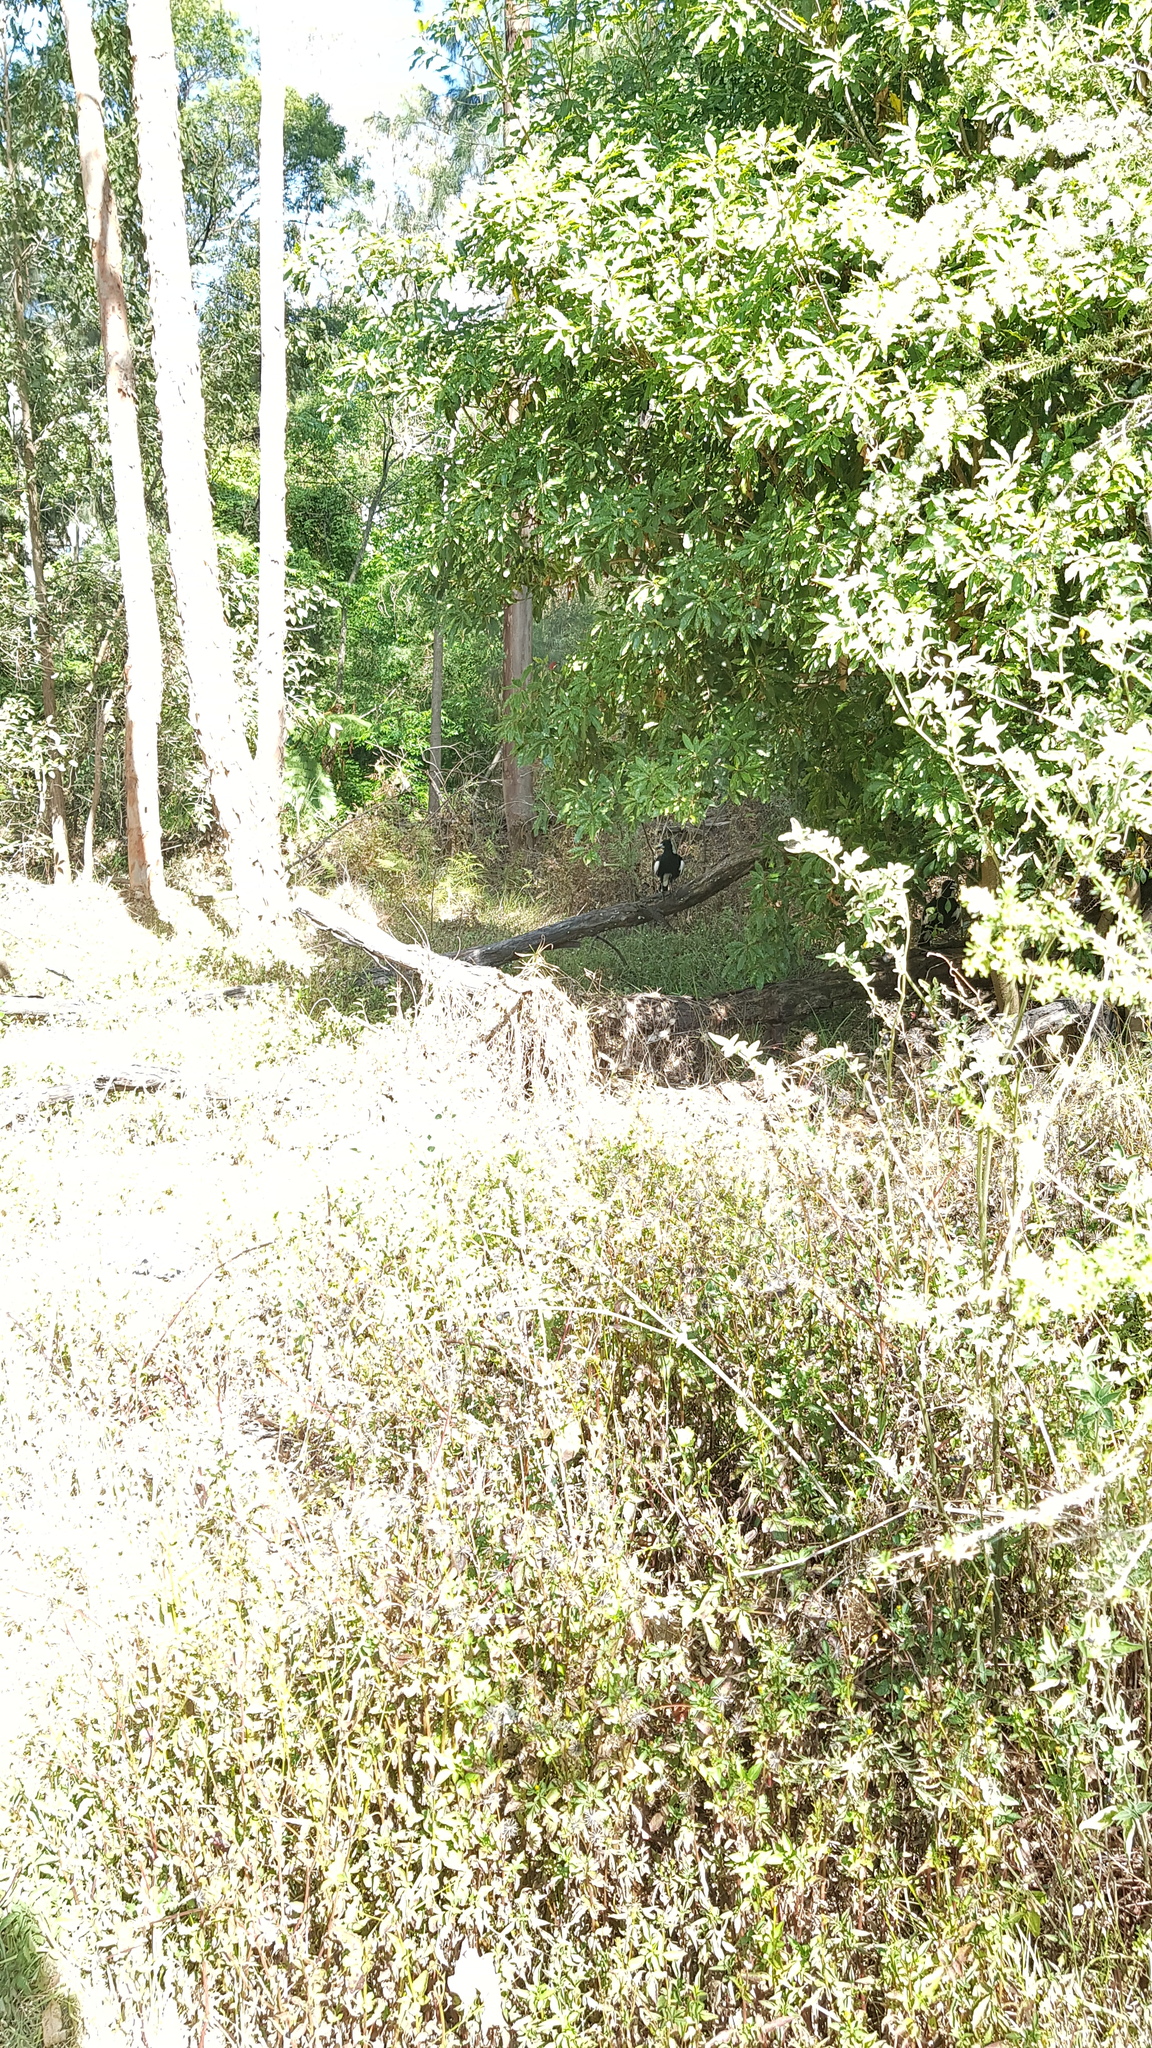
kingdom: Animalia
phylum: Chordata
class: Aves
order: Passeriformes
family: Cracticidae
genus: Gymnorhina
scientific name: Gymnorhina tibicen
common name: Australian magpie
